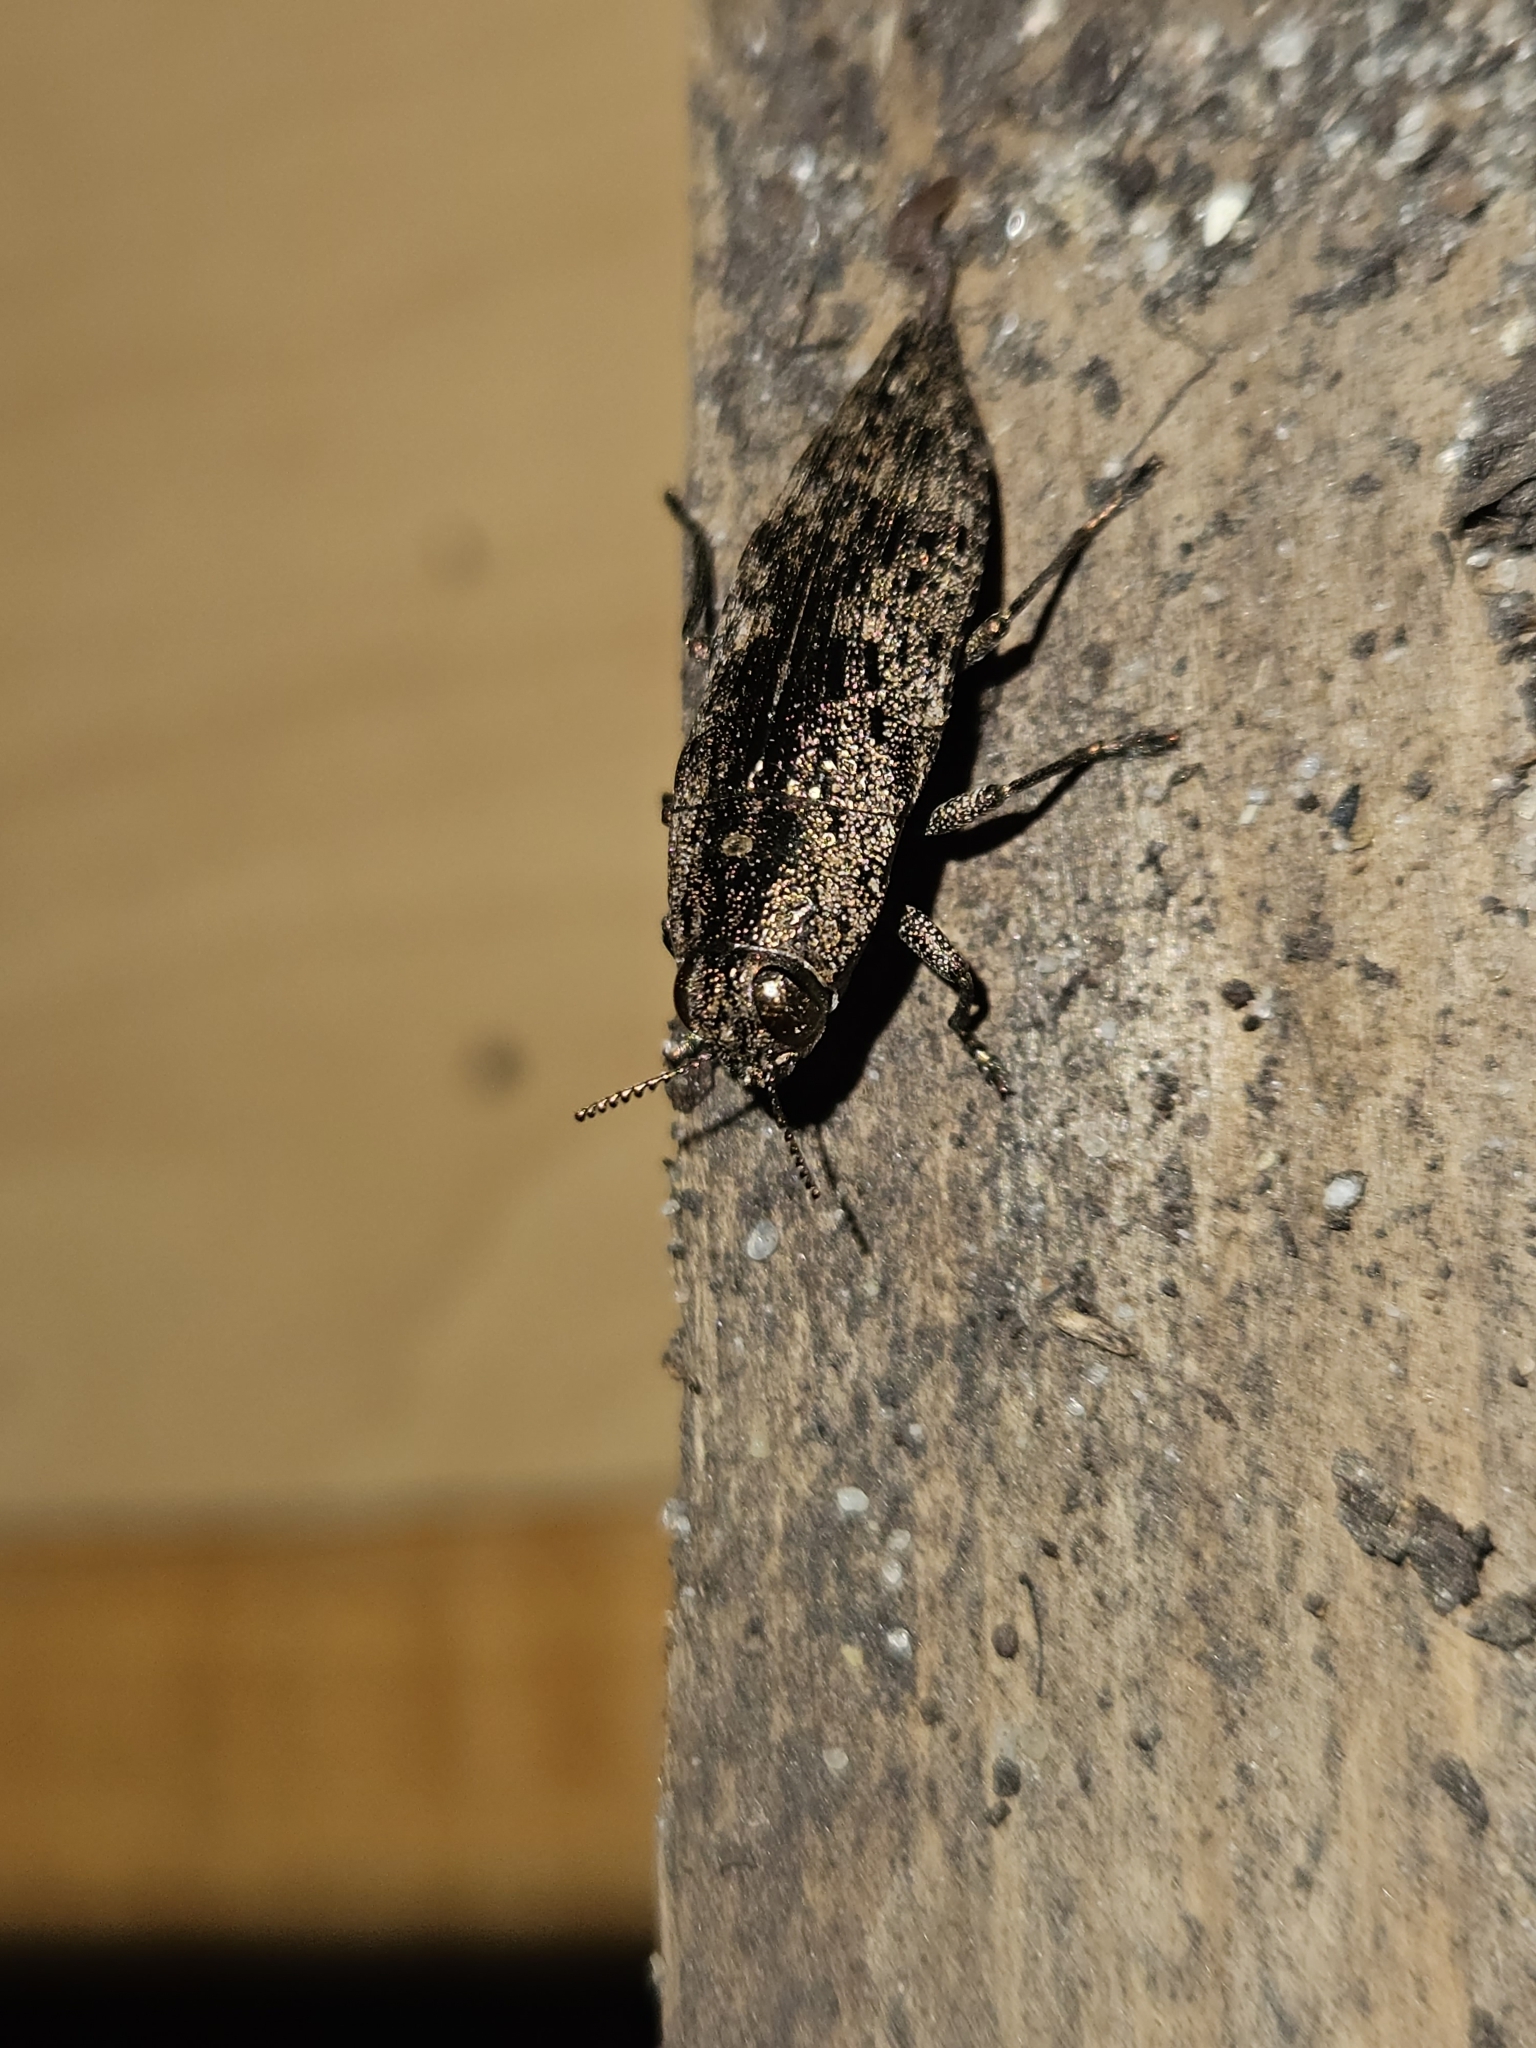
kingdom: Animalia
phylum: Arthropoda
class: Insecta
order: Coleoptera
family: Buprestidae
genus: Dicerca
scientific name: Dicerca obscura
